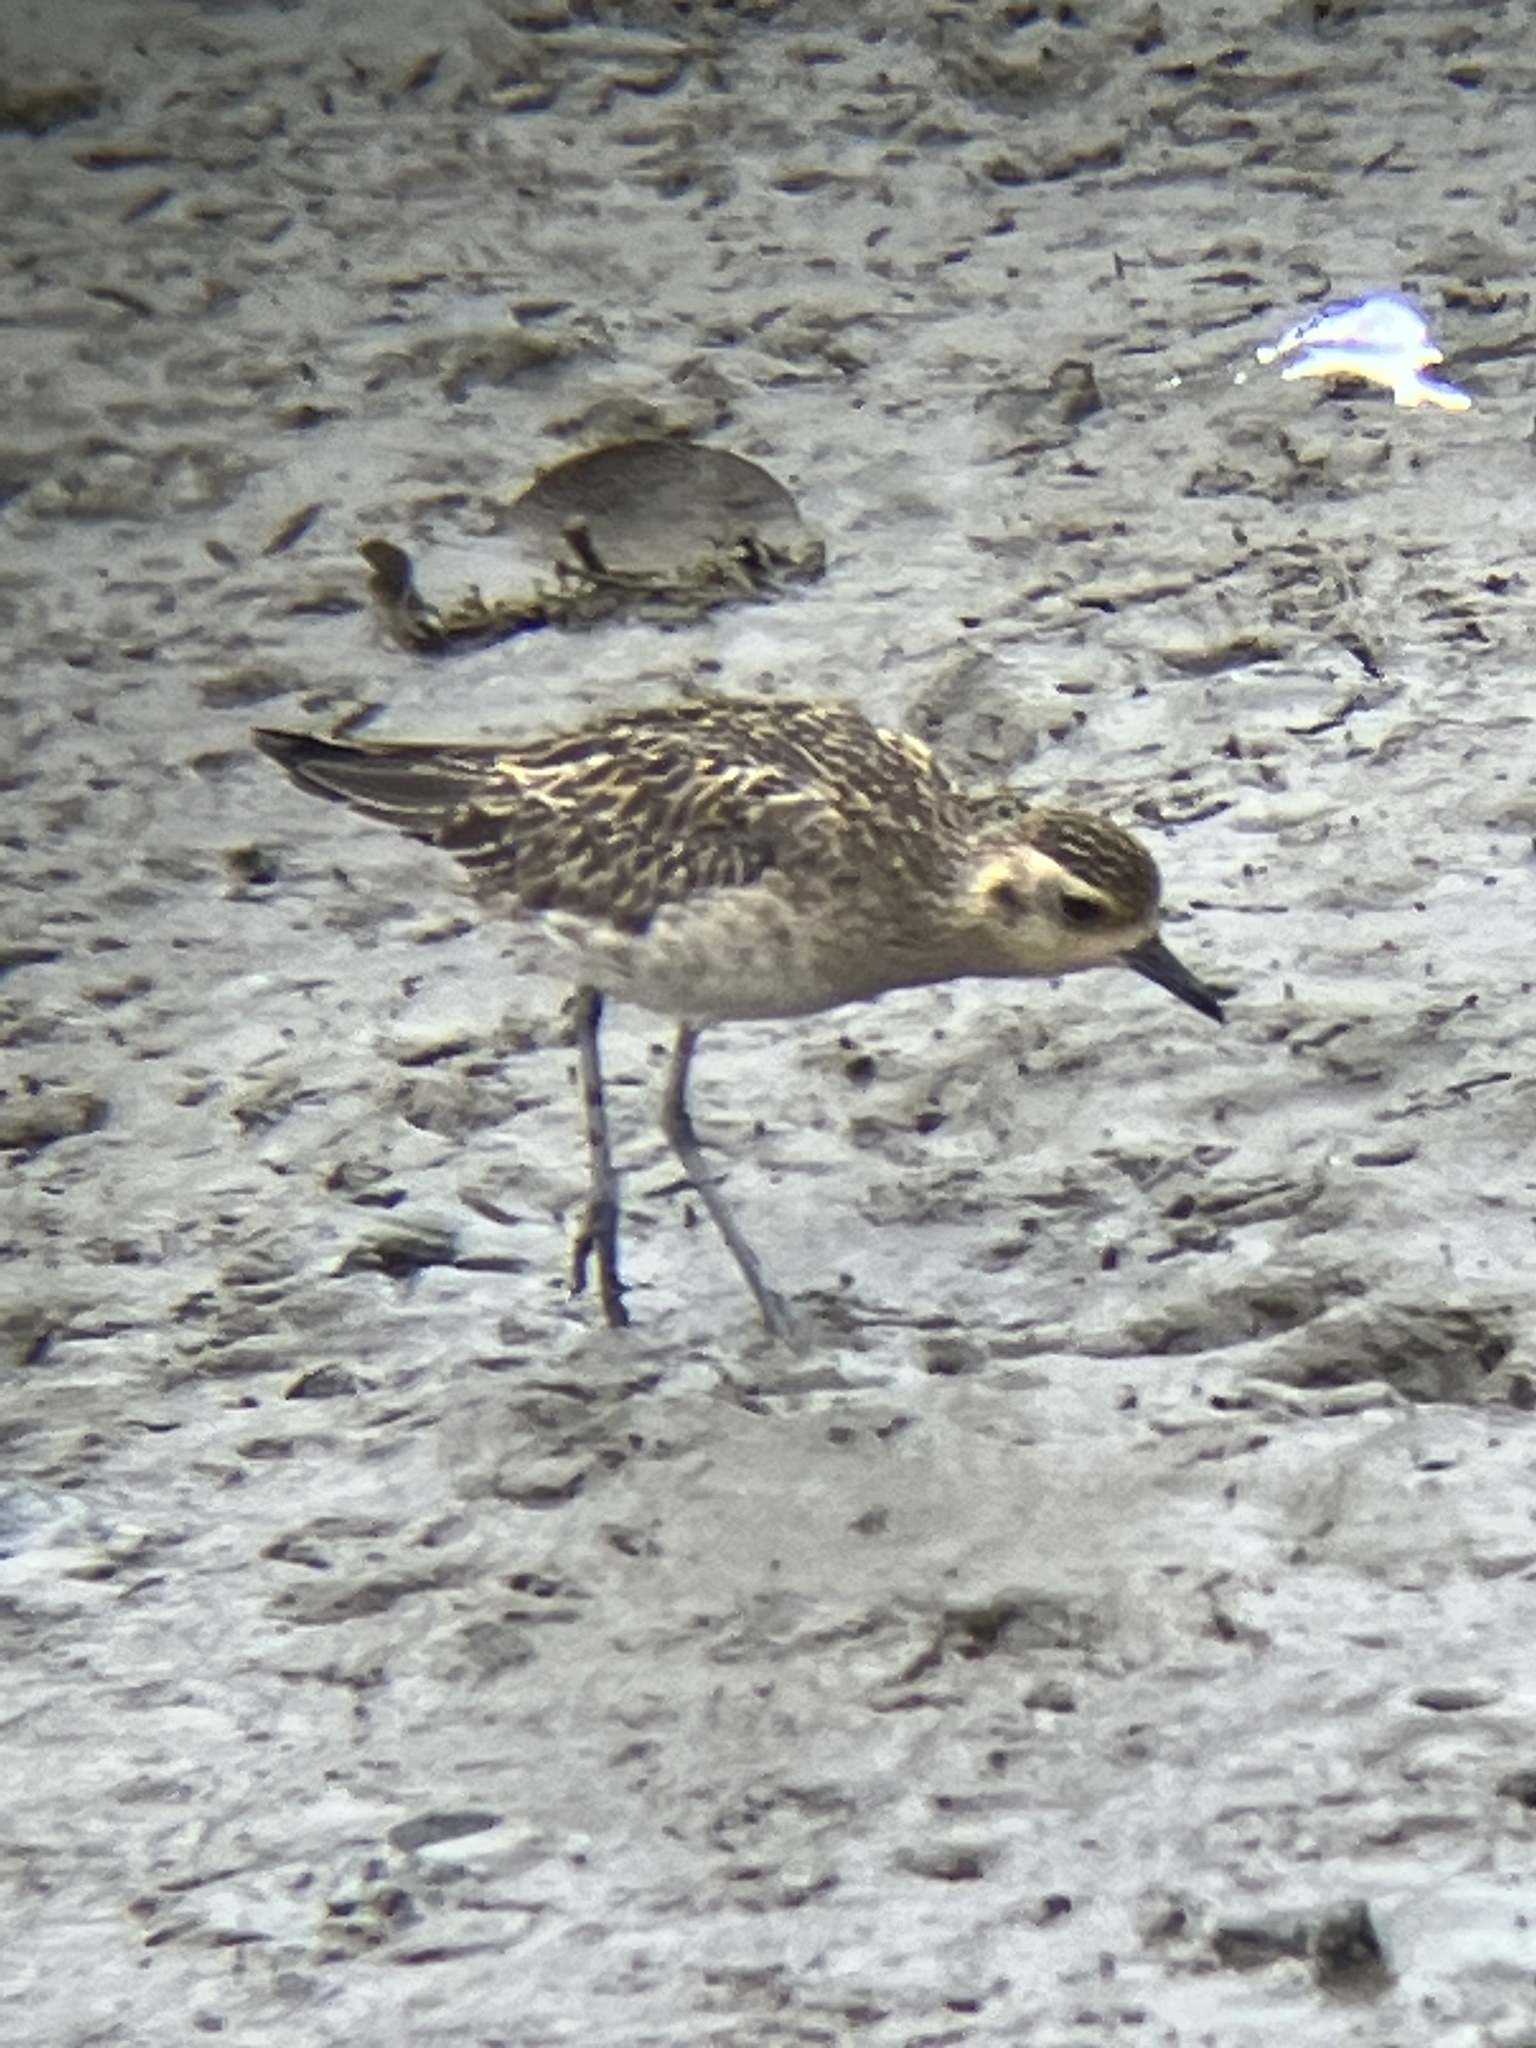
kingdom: Animalia
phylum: Chordata
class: Aves
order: Charadriiformes
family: Charadriidae
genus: Pluvialis
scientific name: Pluvialis fulva
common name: Pacific golden plover
